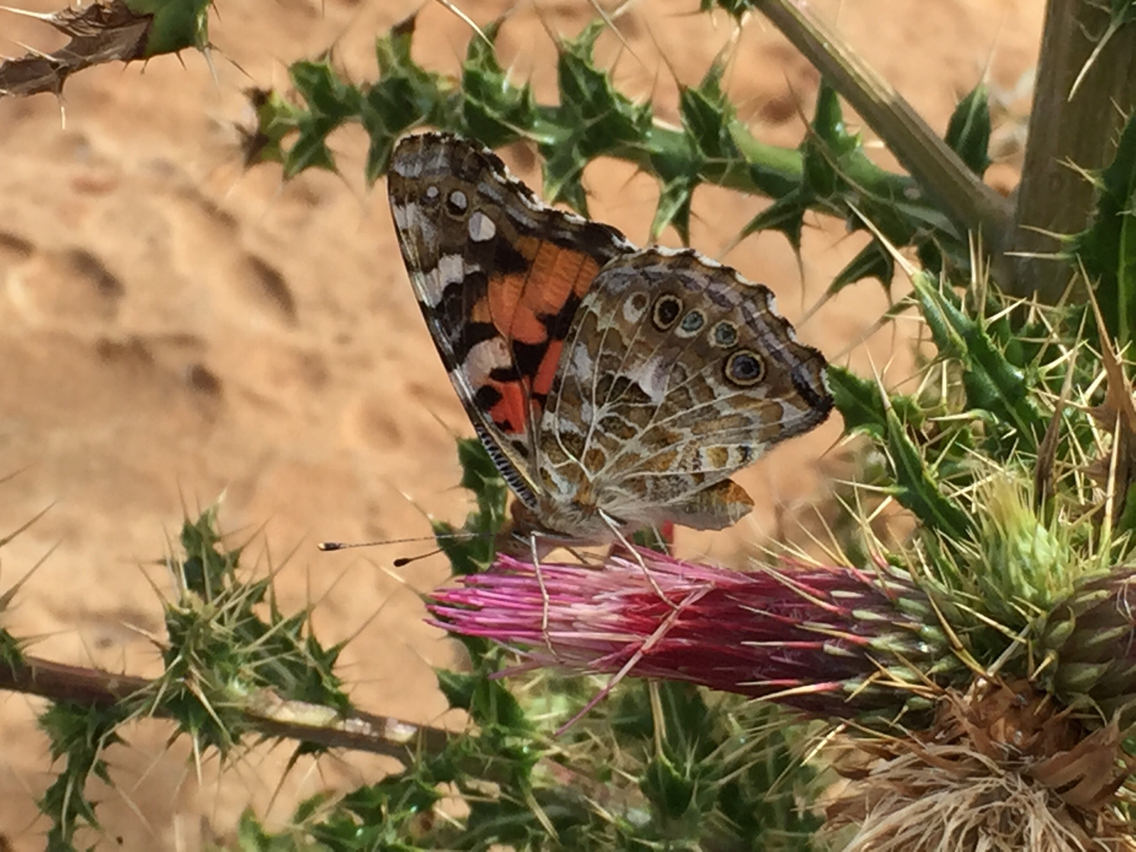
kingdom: Animalia
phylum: Arthropoda
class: Insecta
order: Lepidoptera
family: Nymphalidae
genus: Vanessa
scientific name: Vanessa cardui
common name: Painted lady
